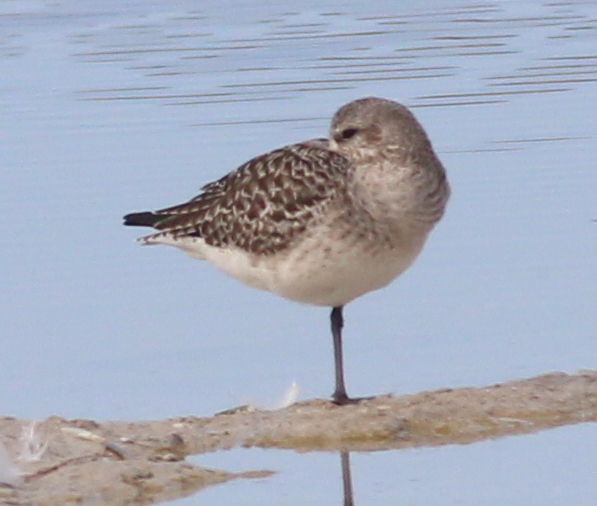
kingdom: Animalia
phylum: Chordata
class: Aves
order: Charadriiformes
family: Charadriidae
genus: Pluvialis
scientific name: Pluvialis squatarola
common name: Grey plover
